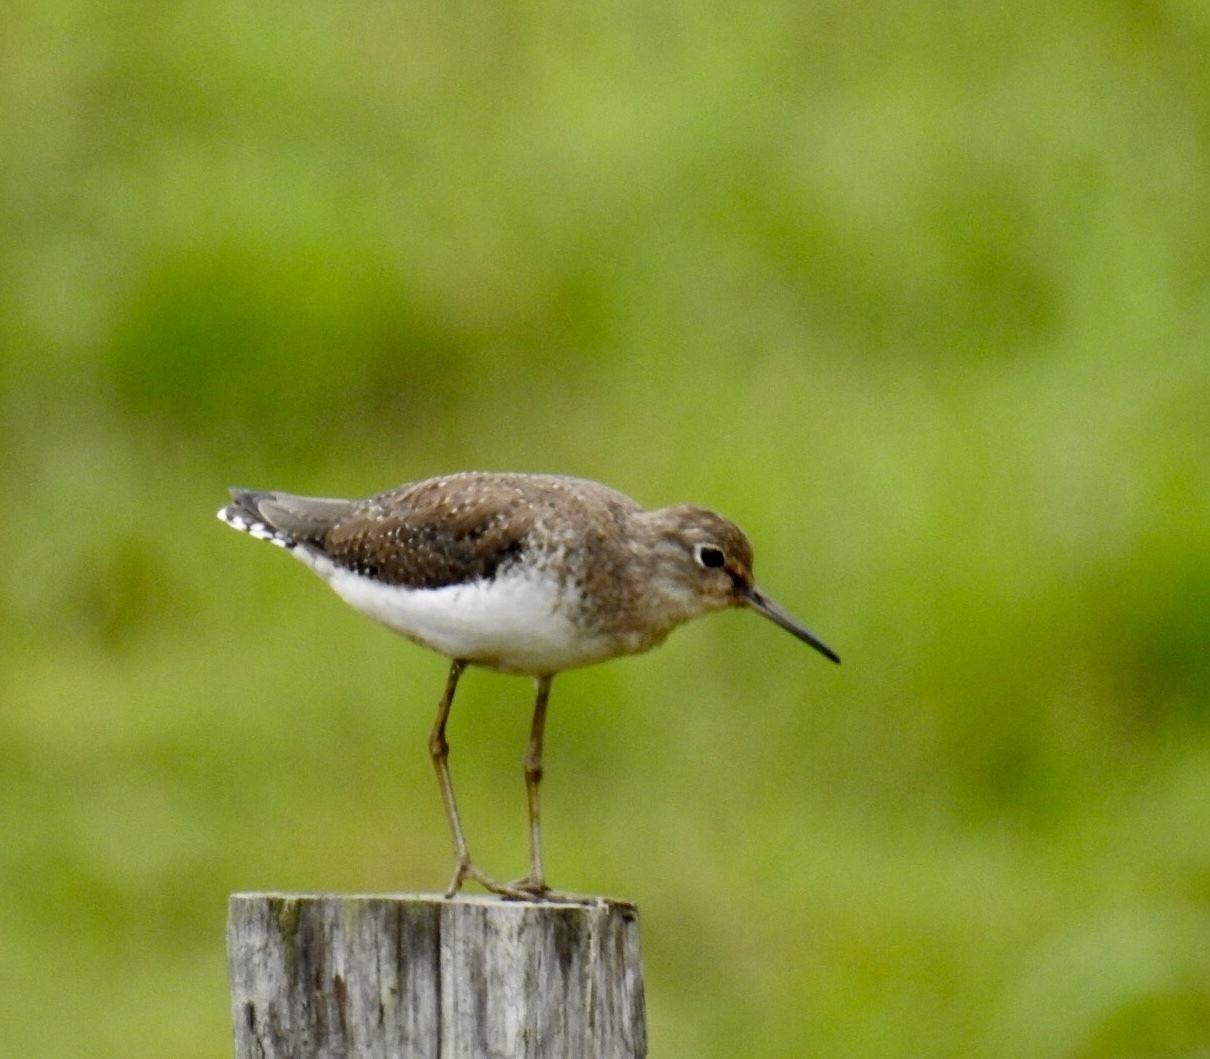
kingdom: Animalia
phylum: Chordata
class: Aves
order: Charadriiformes
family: Scolopacidae
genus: Tringa
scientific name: Tringa solitaria
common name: Solitary sandpiper
